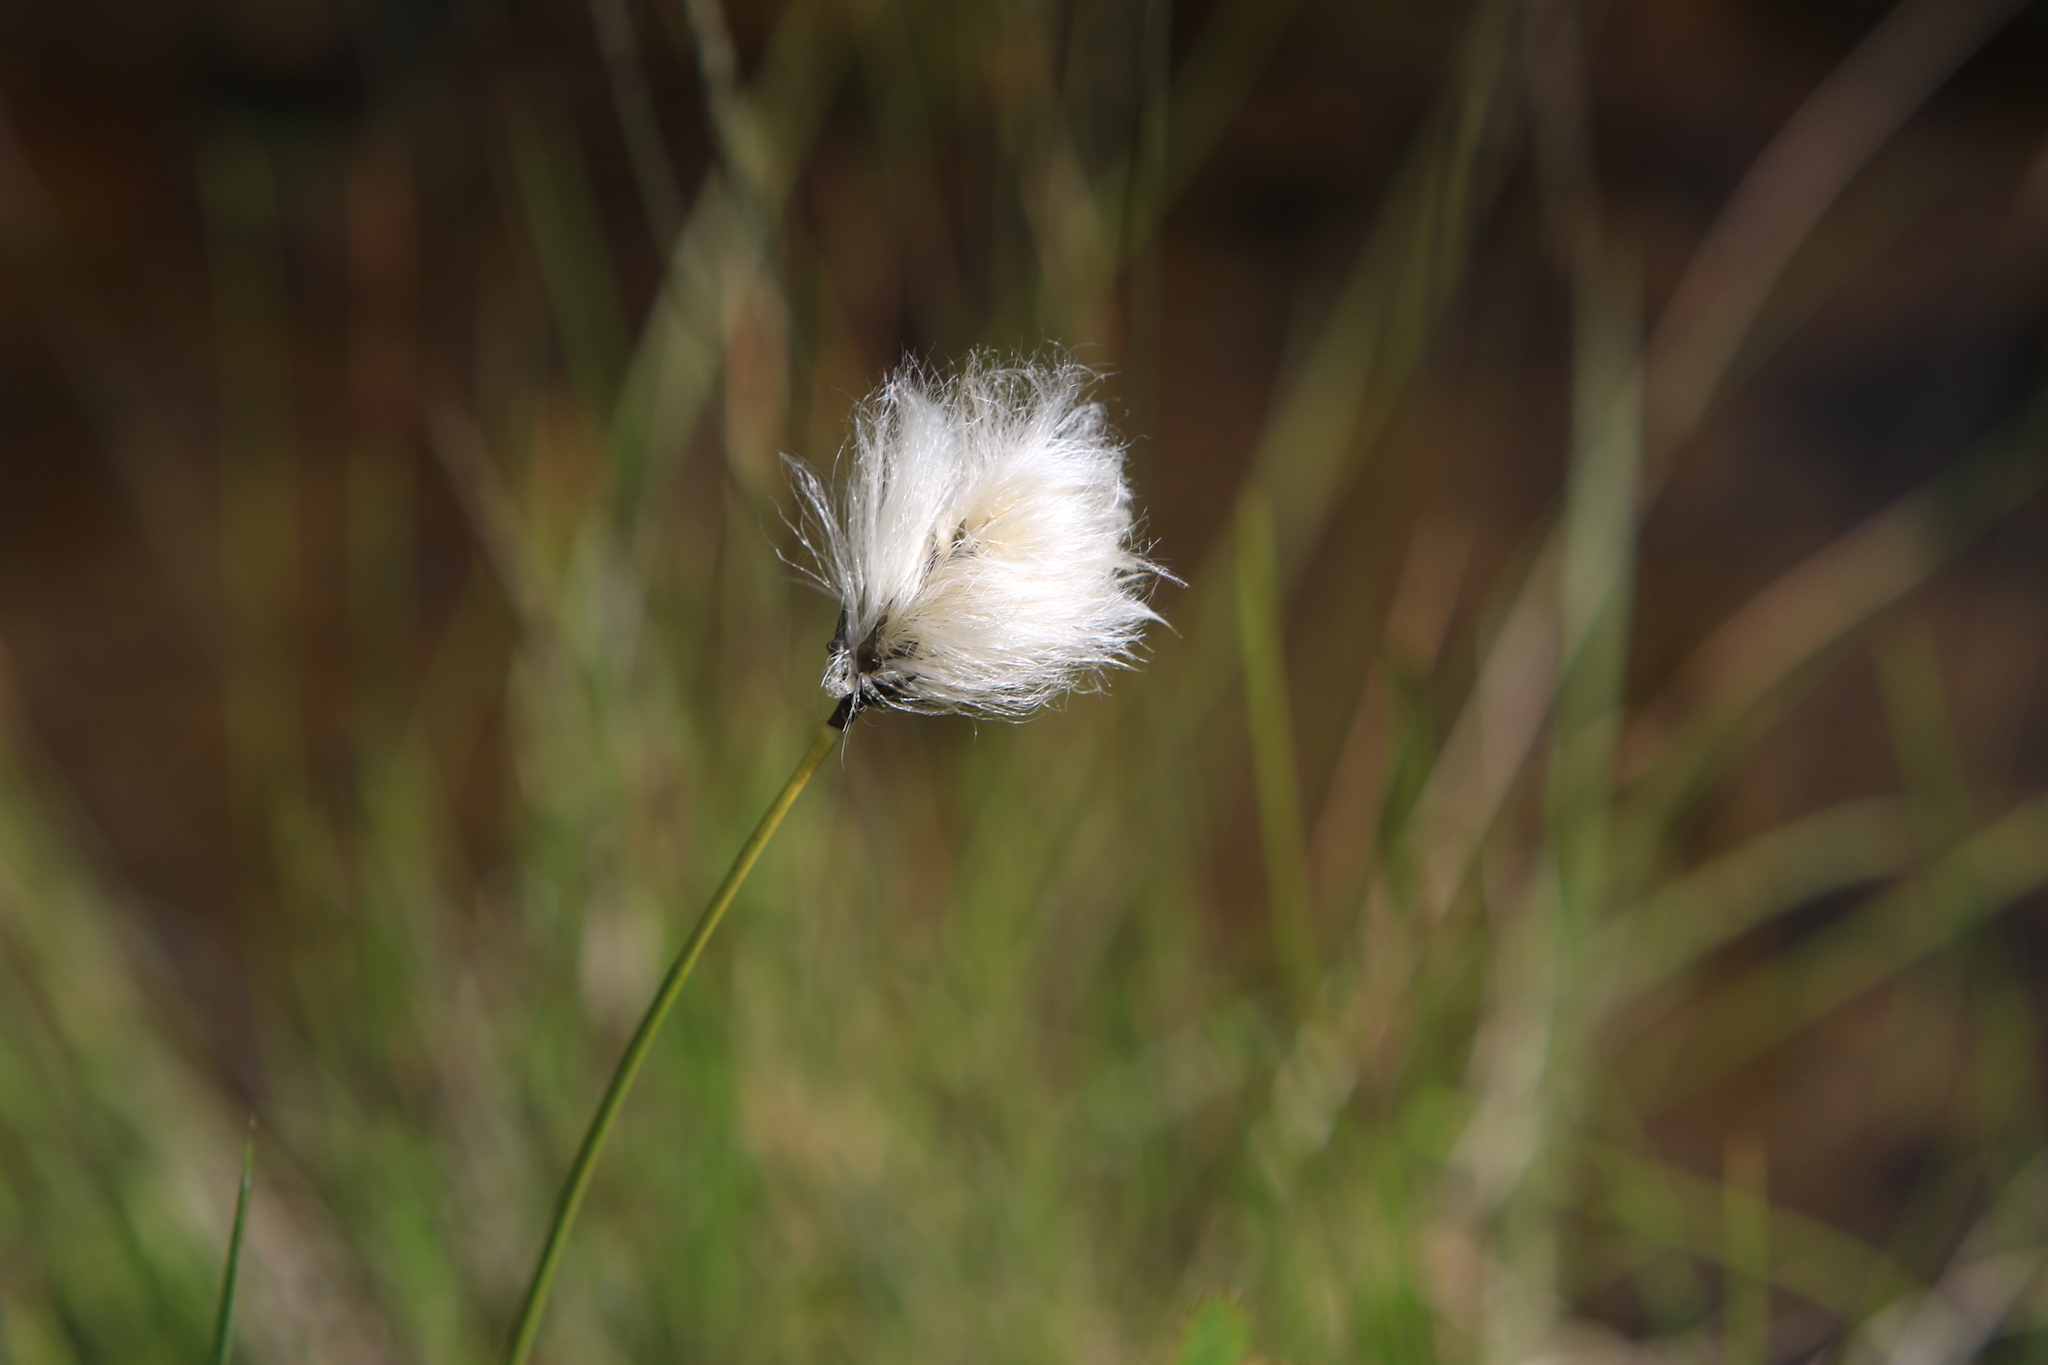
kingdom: Plantae
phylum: Tracheophyta
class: Liliopsida
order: Poales
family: Cyperaceae
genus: Eriophorum
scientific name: Eriophorum scheuchzeri
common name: Scheuchzer's cottongrass
